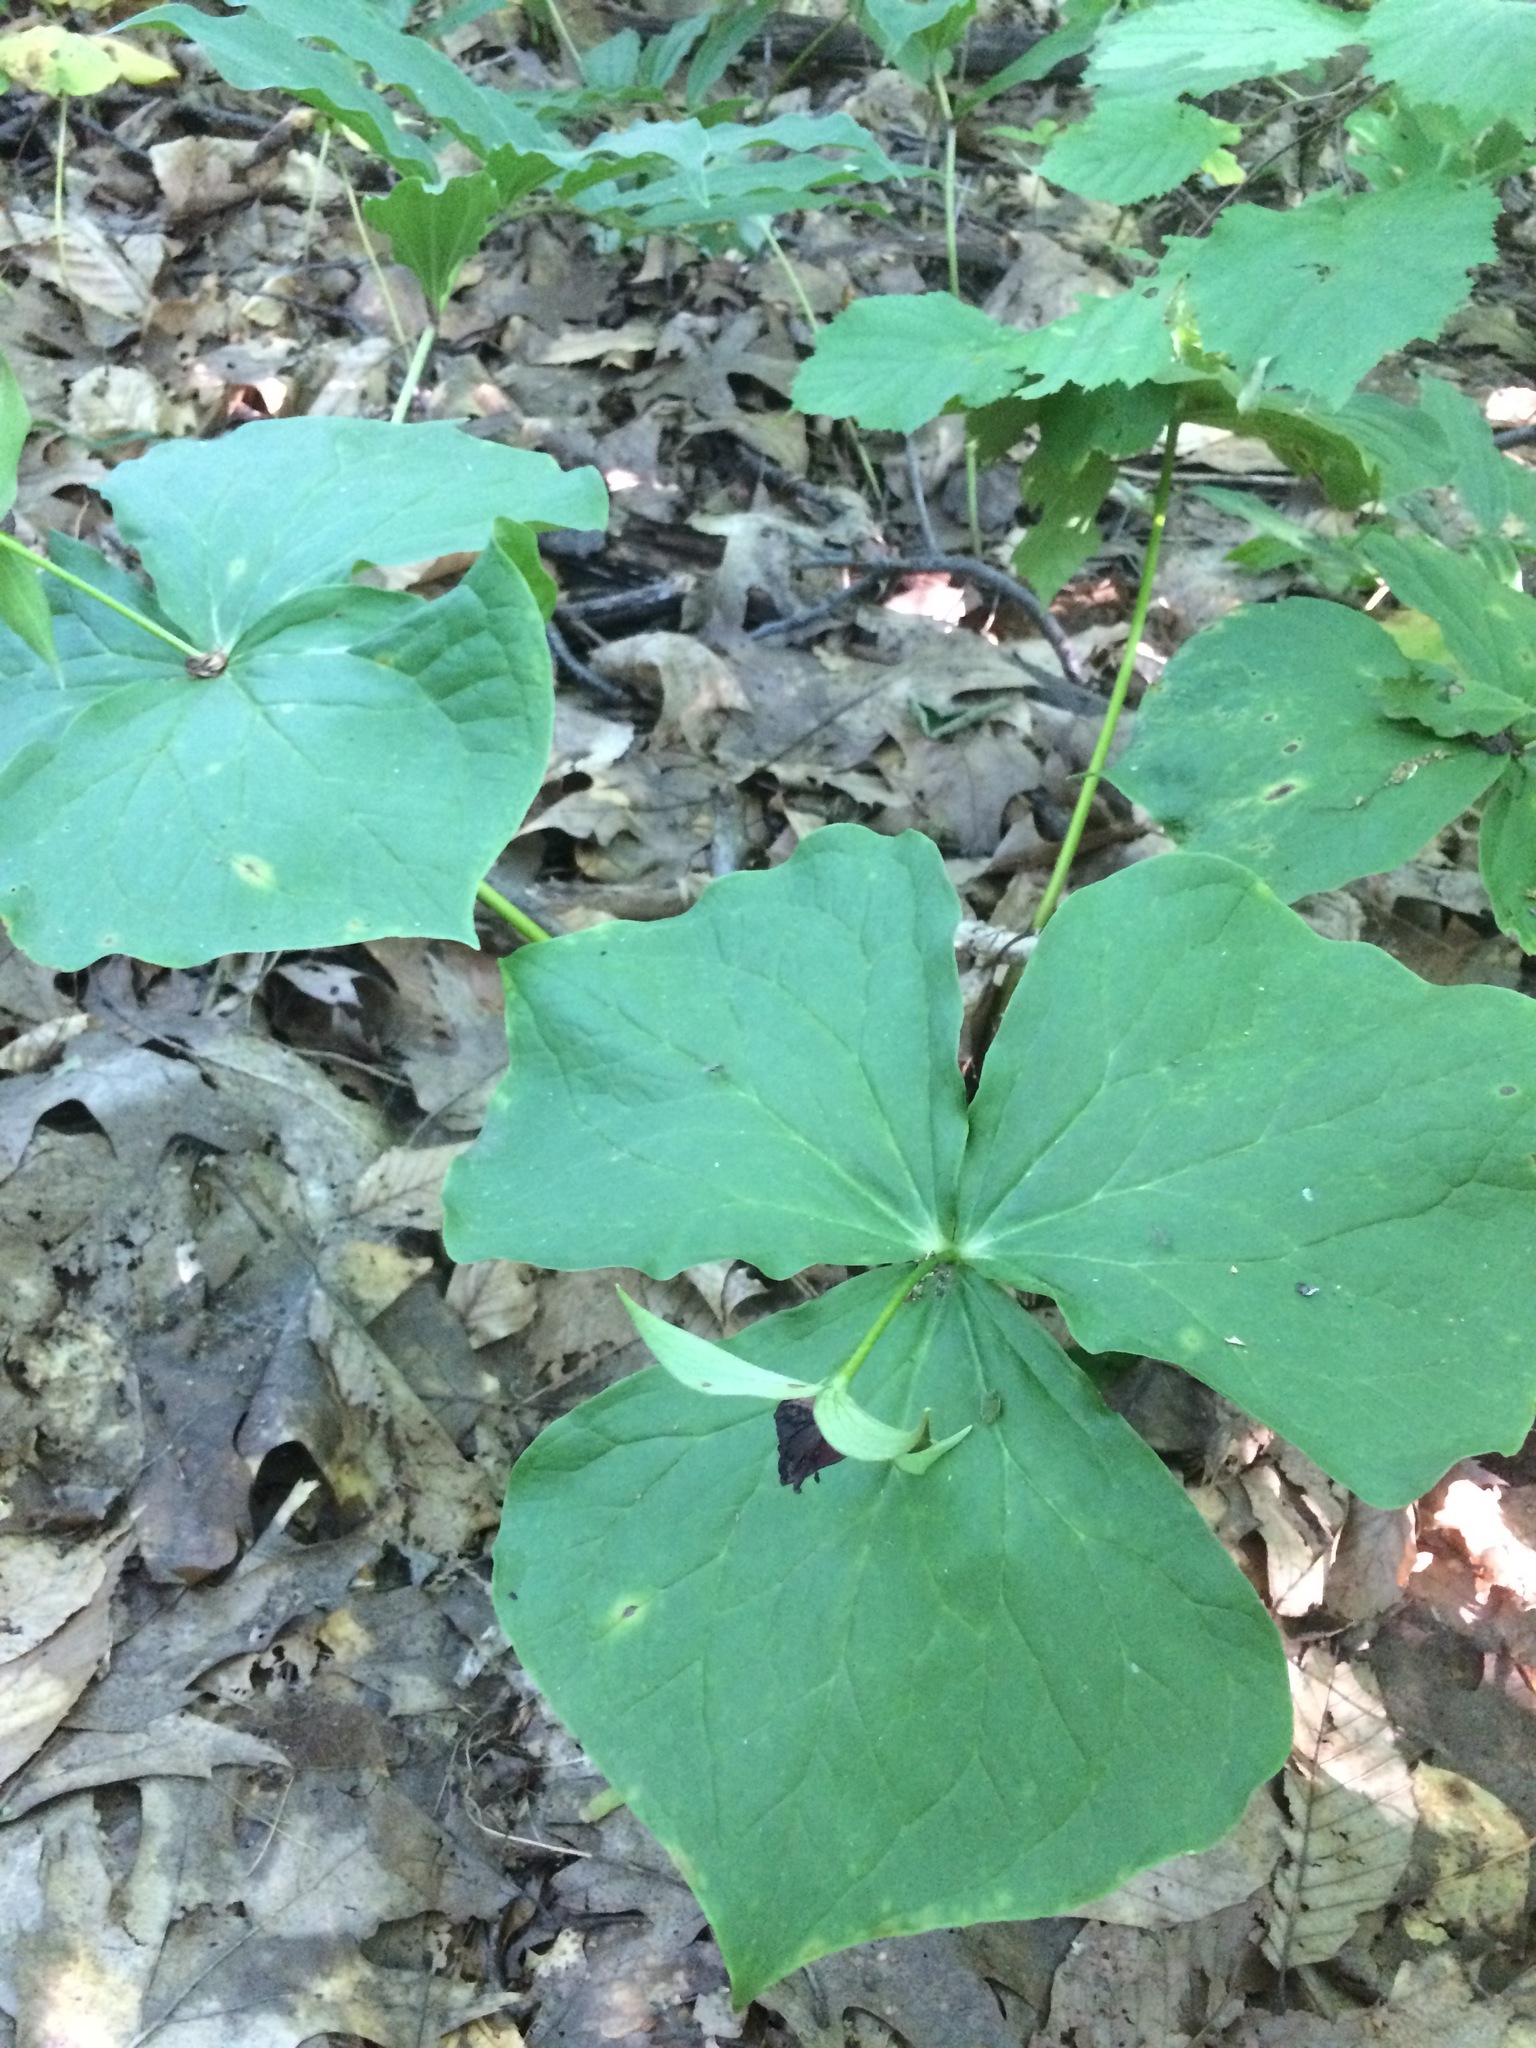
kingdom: Plantae
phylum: Tracheophyta
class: Liliopsida
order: Liliales
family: Melanthiaceae
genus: Trillium
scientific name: Trillium erectum
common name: Purple trillium
